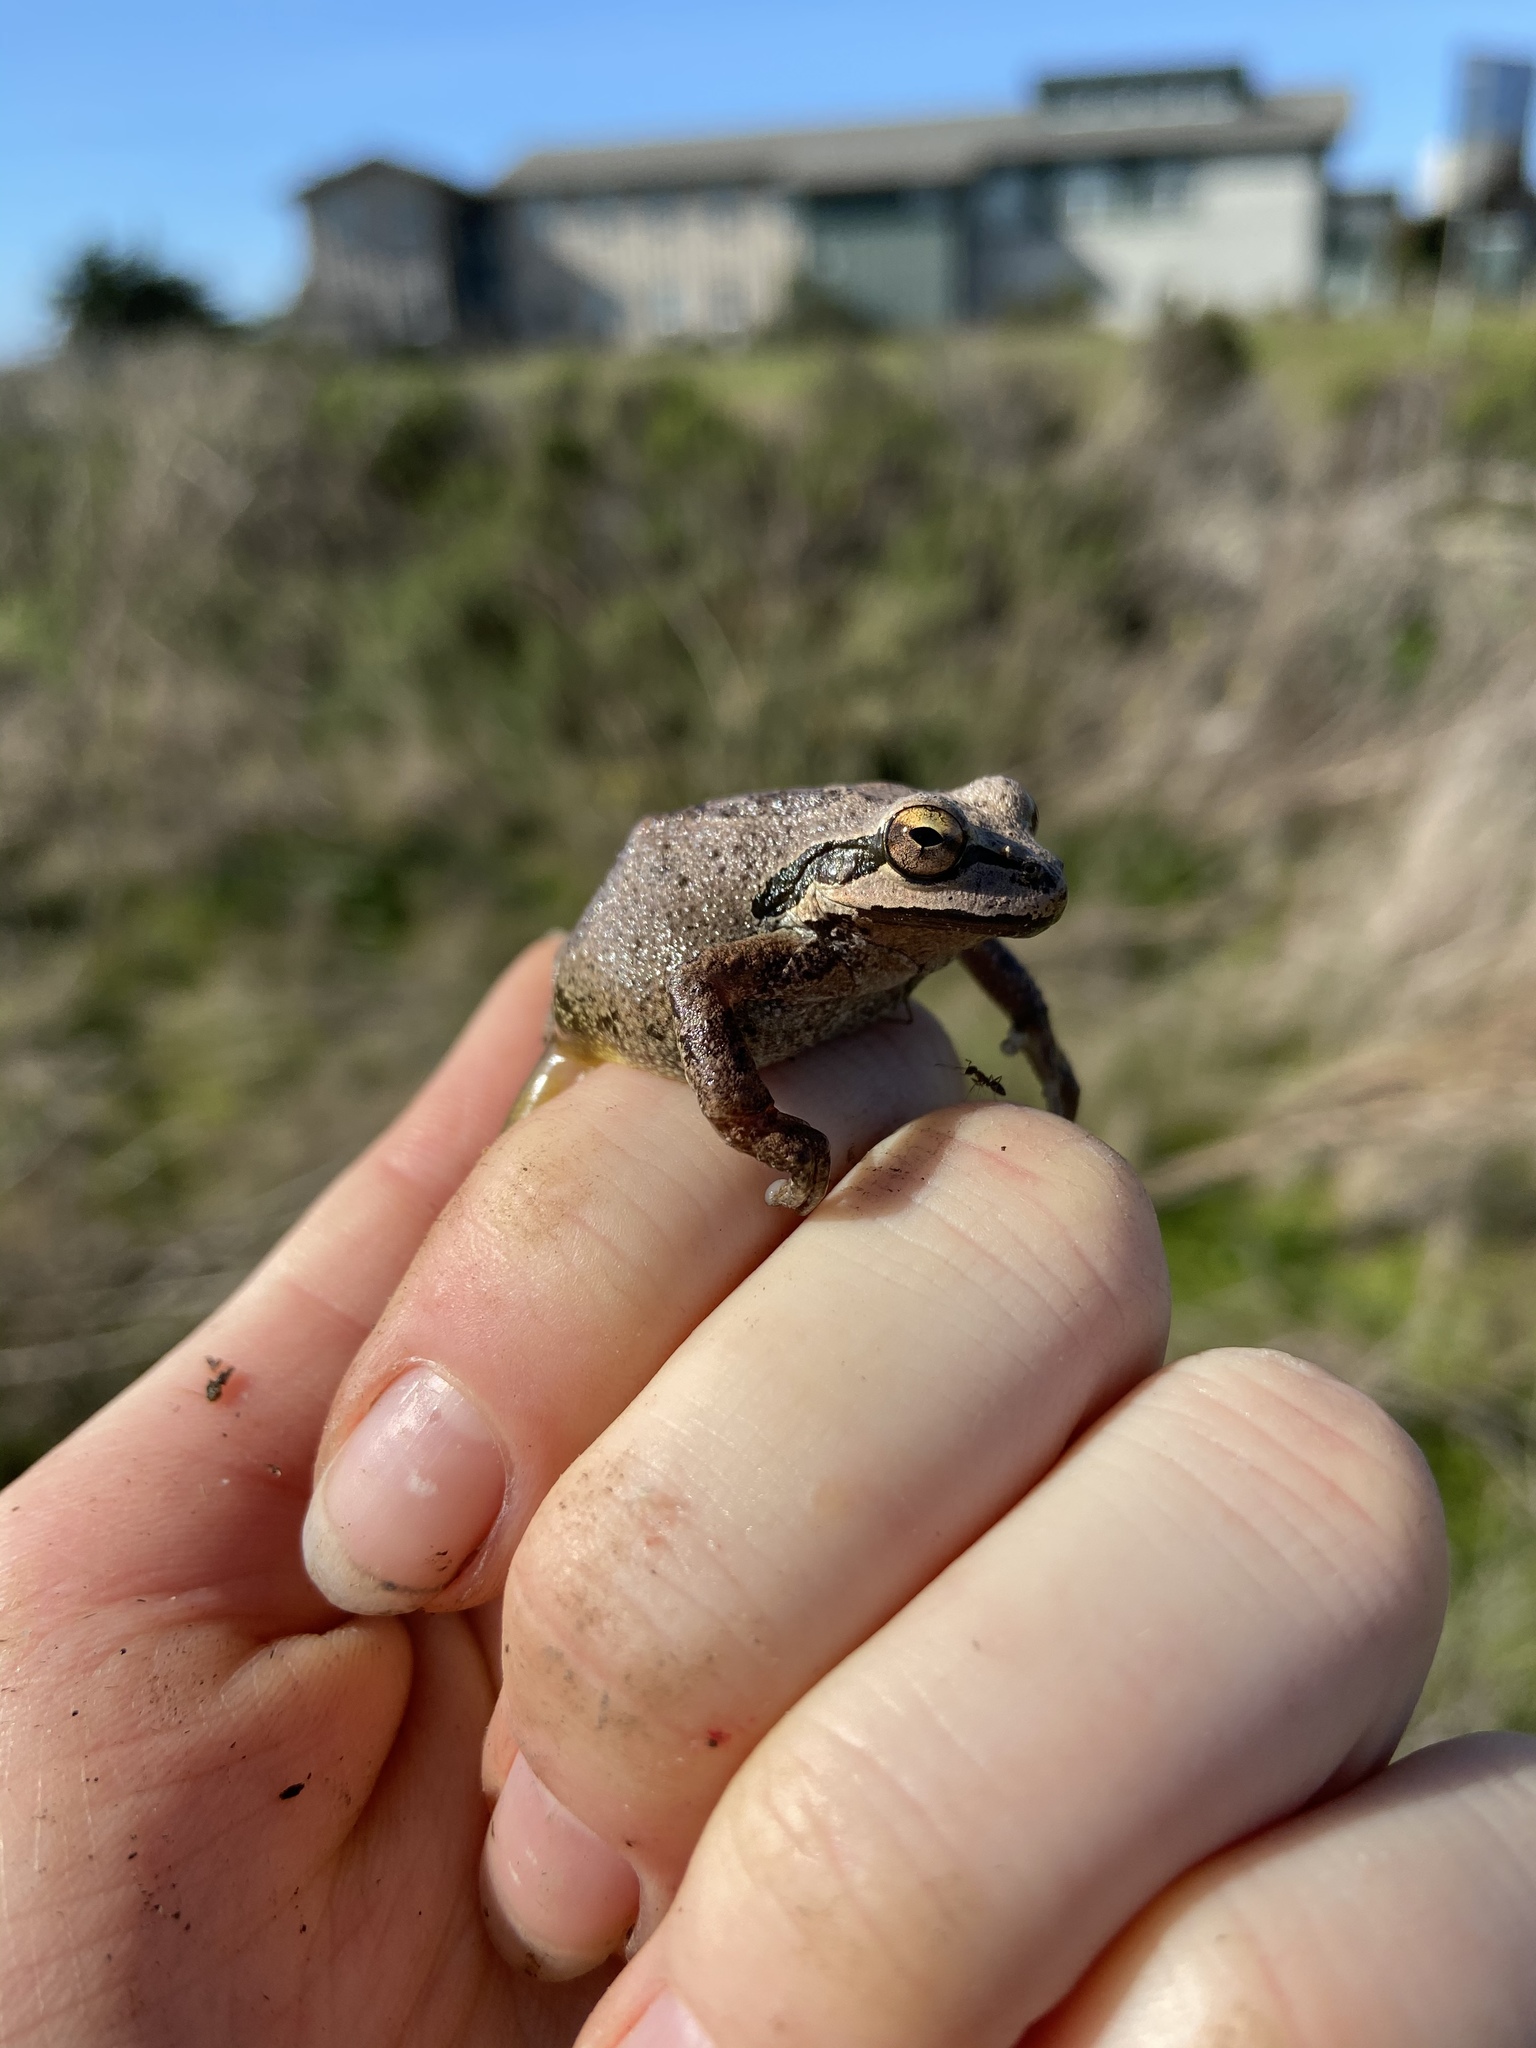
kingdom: Animalia
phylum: Chordata
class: Amphibia
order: Anura
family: Hylidae
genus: Pseudacris
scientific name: Pseudacris regilla
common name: Pacific chorus frog
